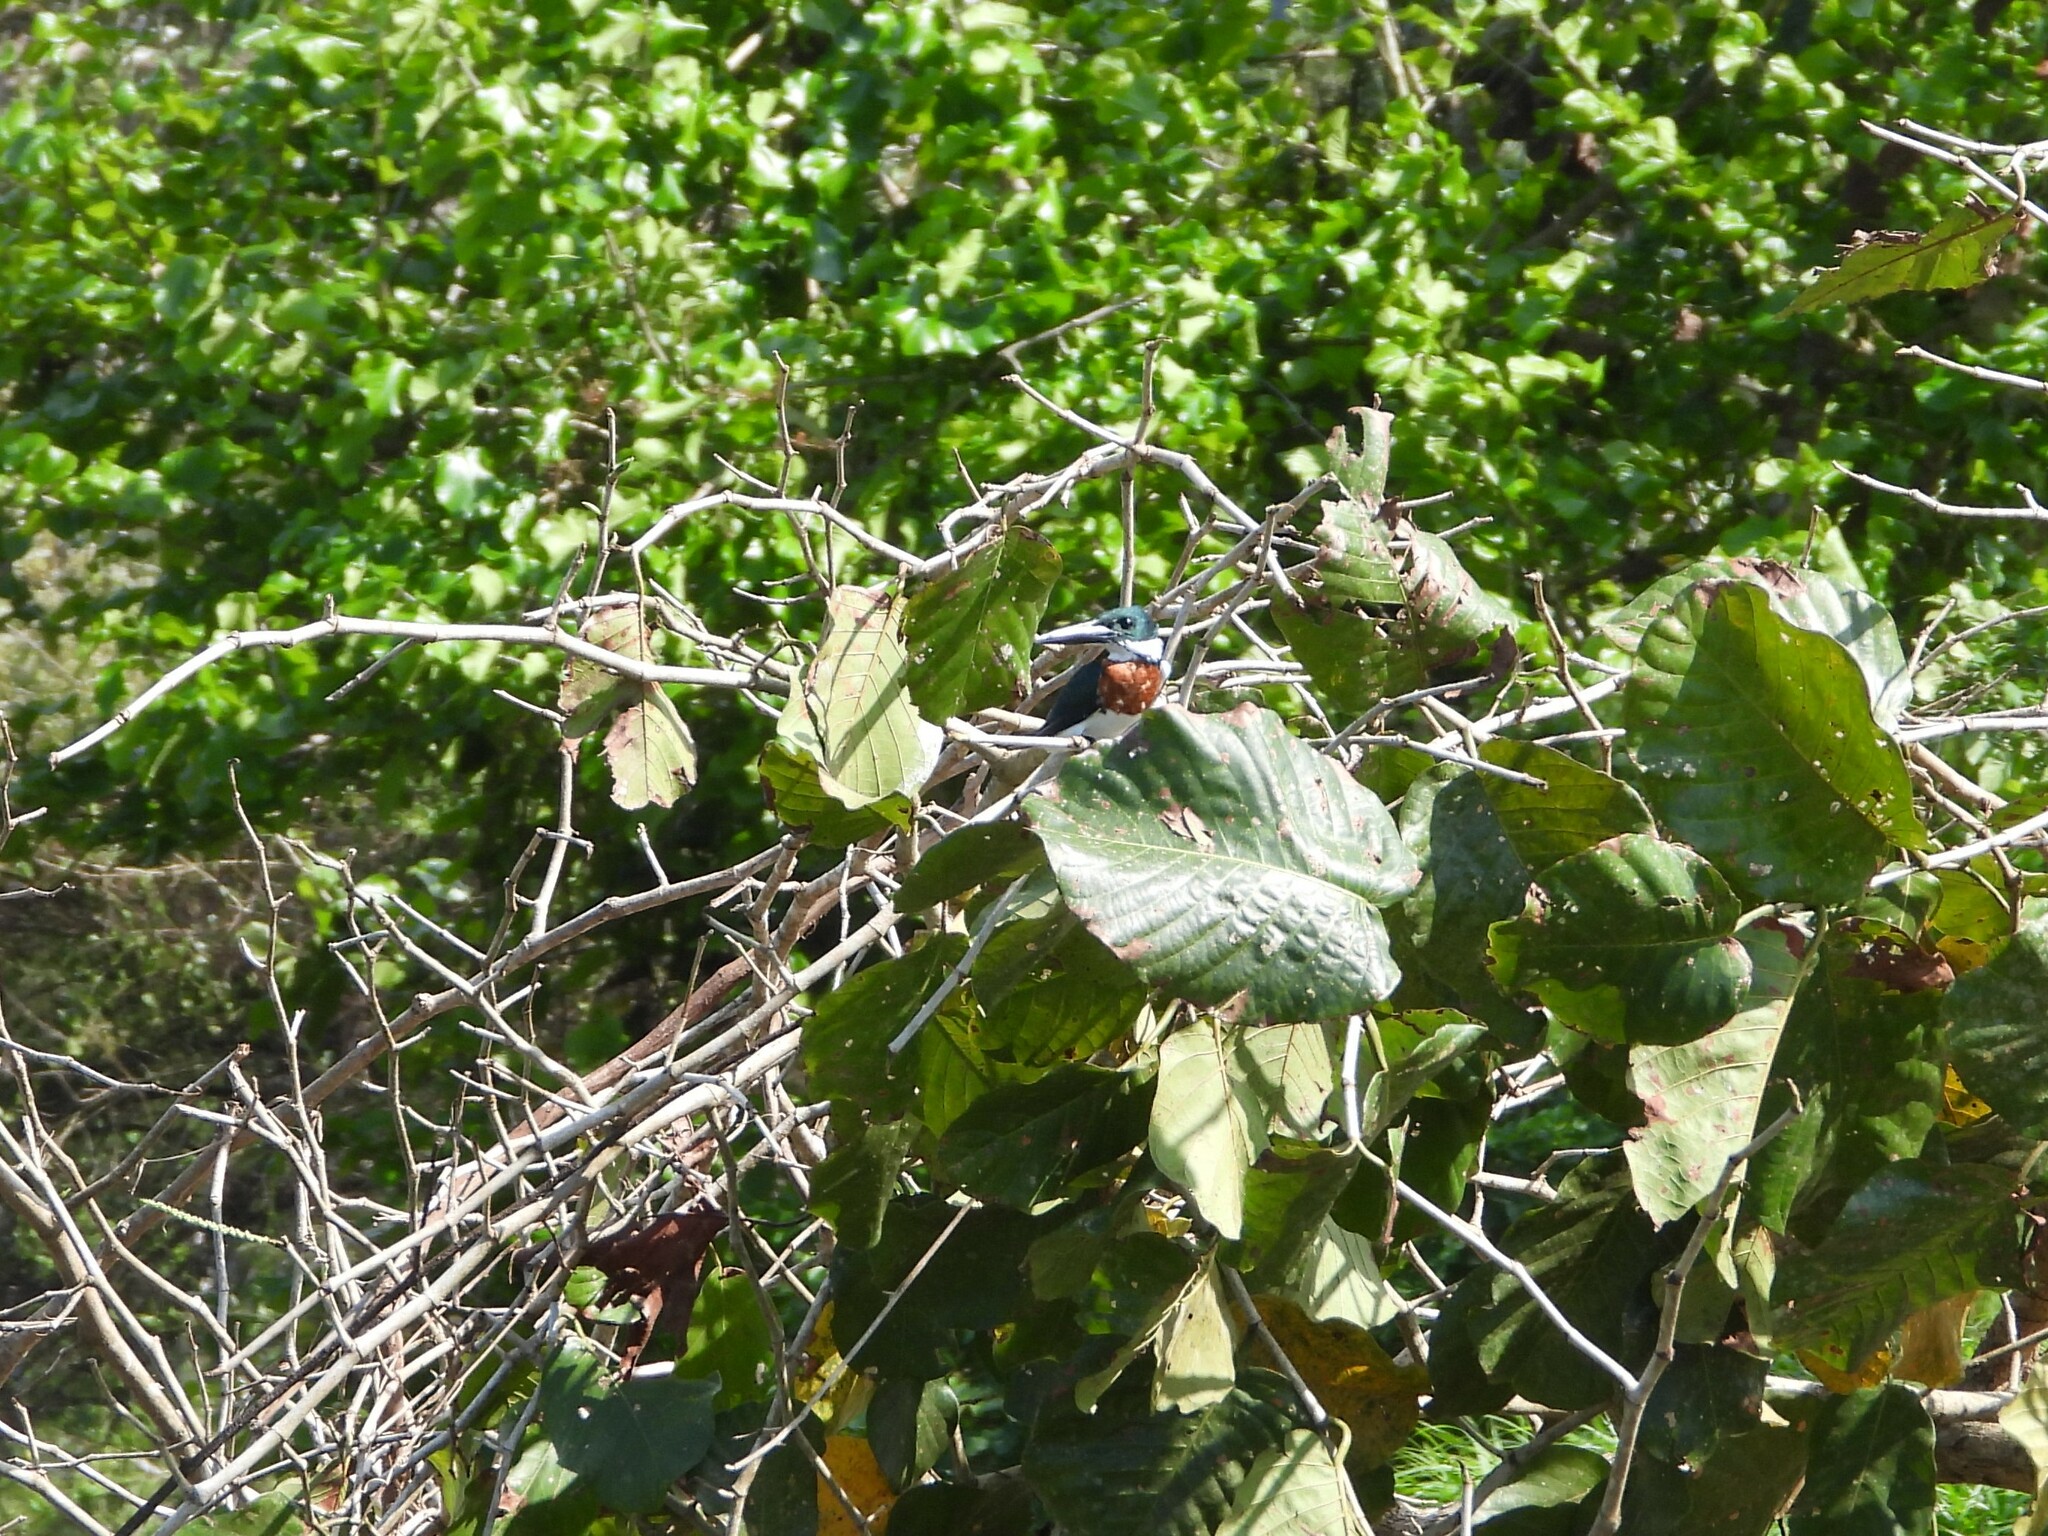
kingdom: Animalia
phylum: Chordata
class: Aves
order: Coraciiformes
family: Alcedinidae
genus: Chloroceryle
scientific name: Chloroceryle amazona
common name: Amazon kingfisher
